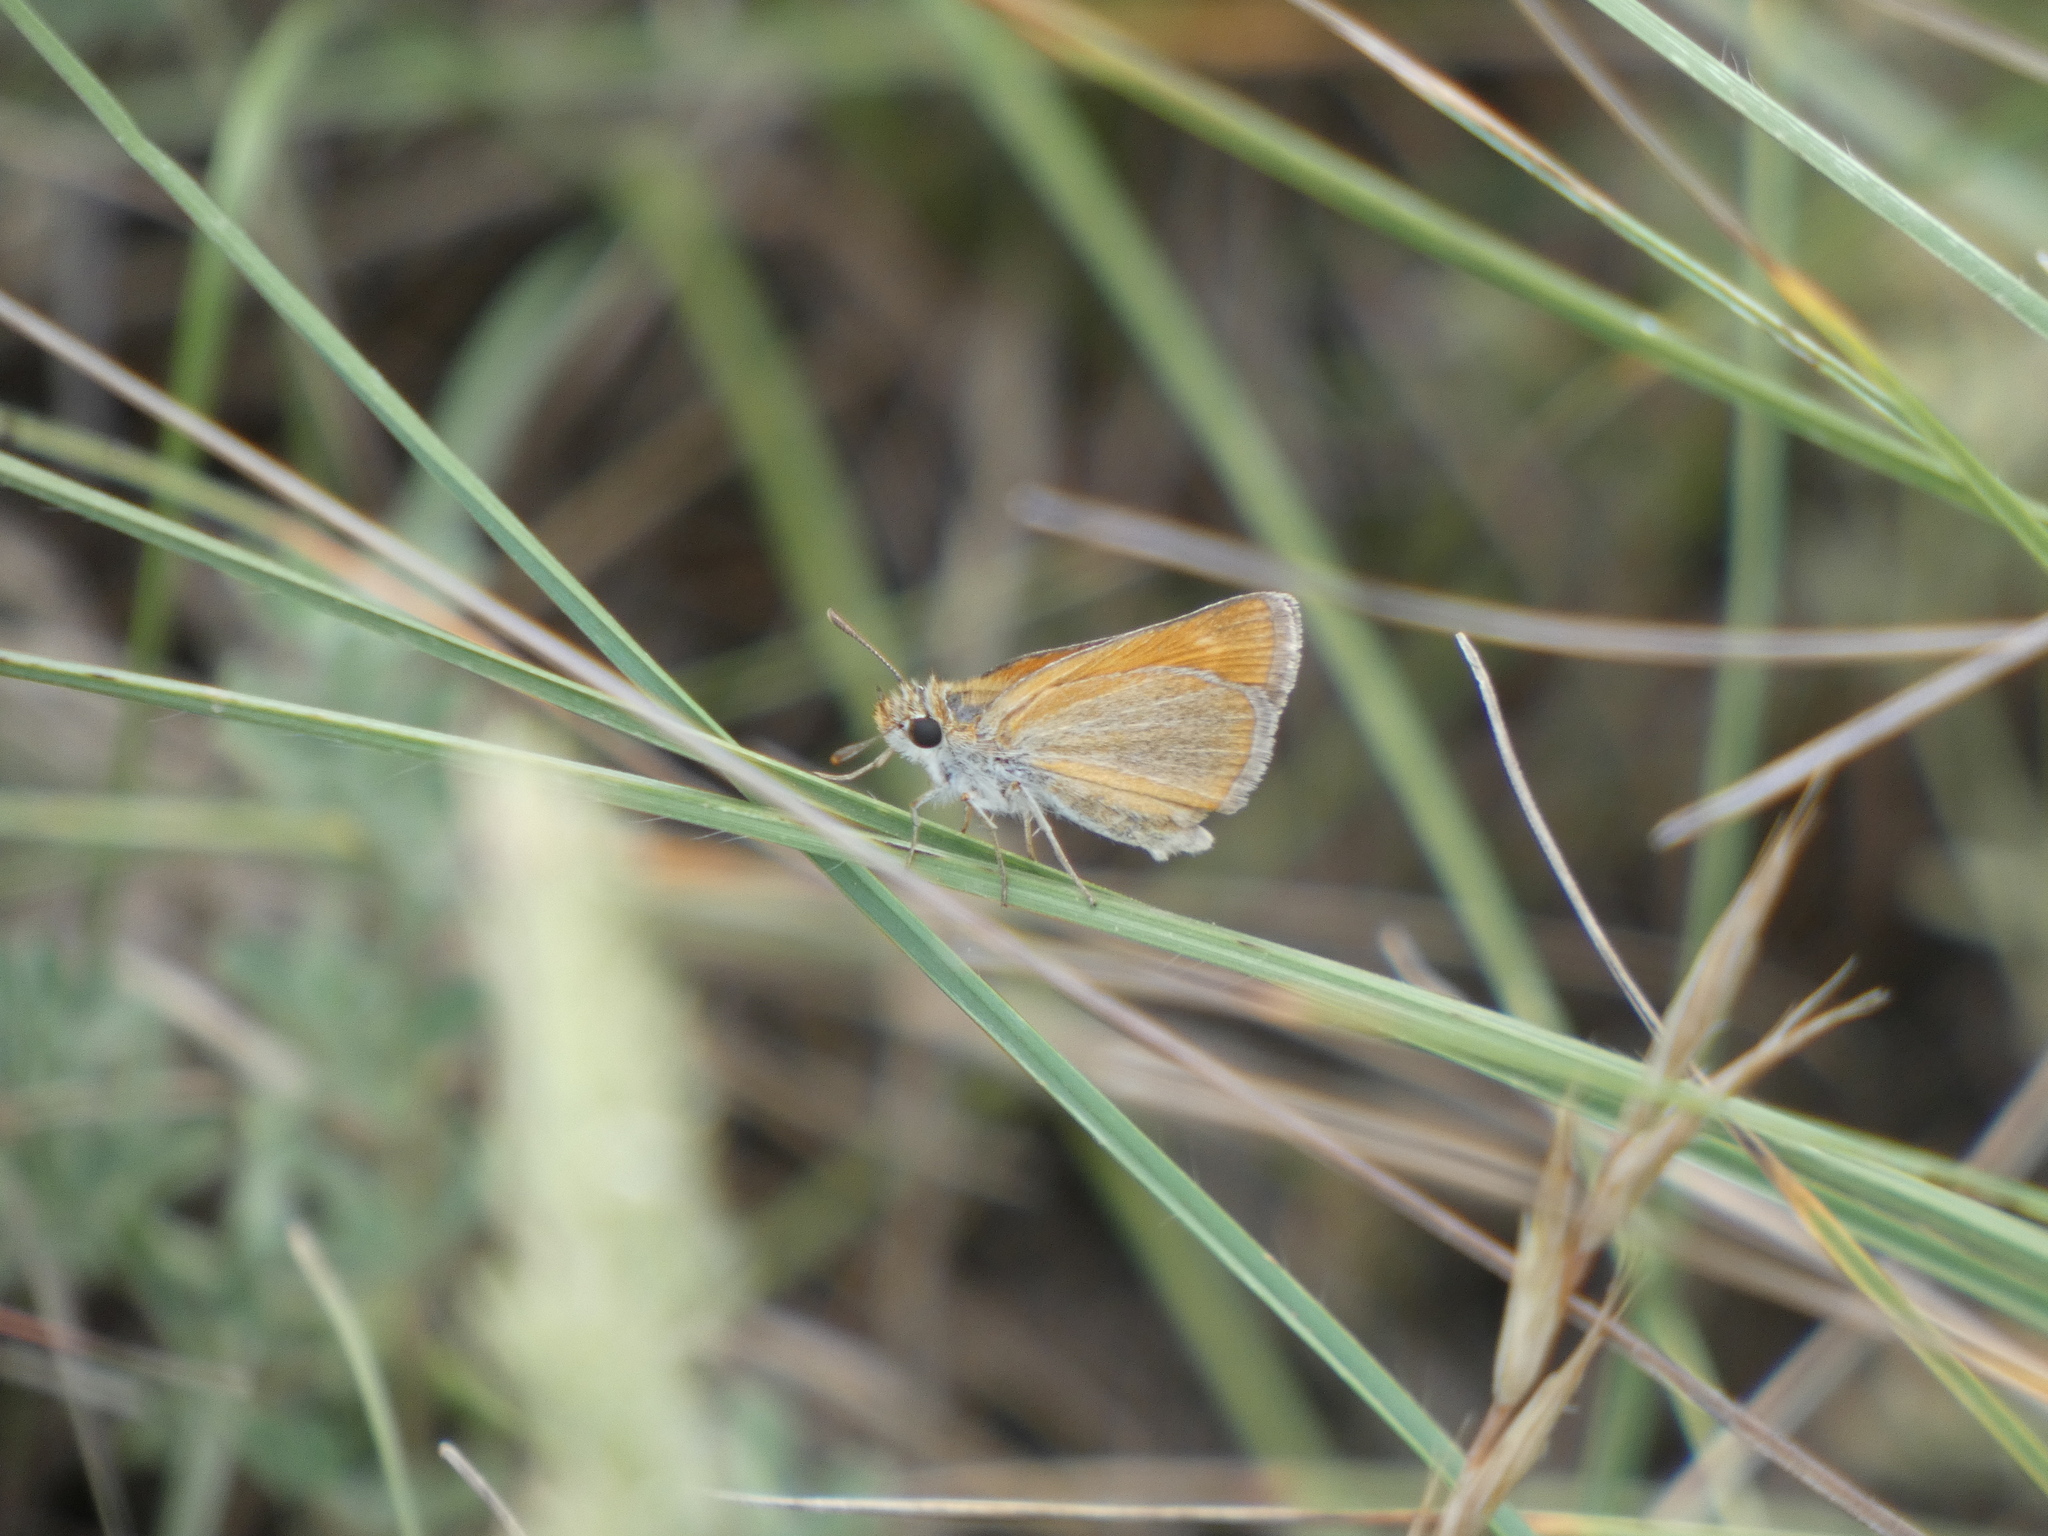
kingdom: Animalia
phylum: Arthropoda
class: Insecta
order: Lepidoptera
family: Hesperiidae
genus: Thymelicus
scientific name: Thymelicus acteon
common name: Lulworth skipper
